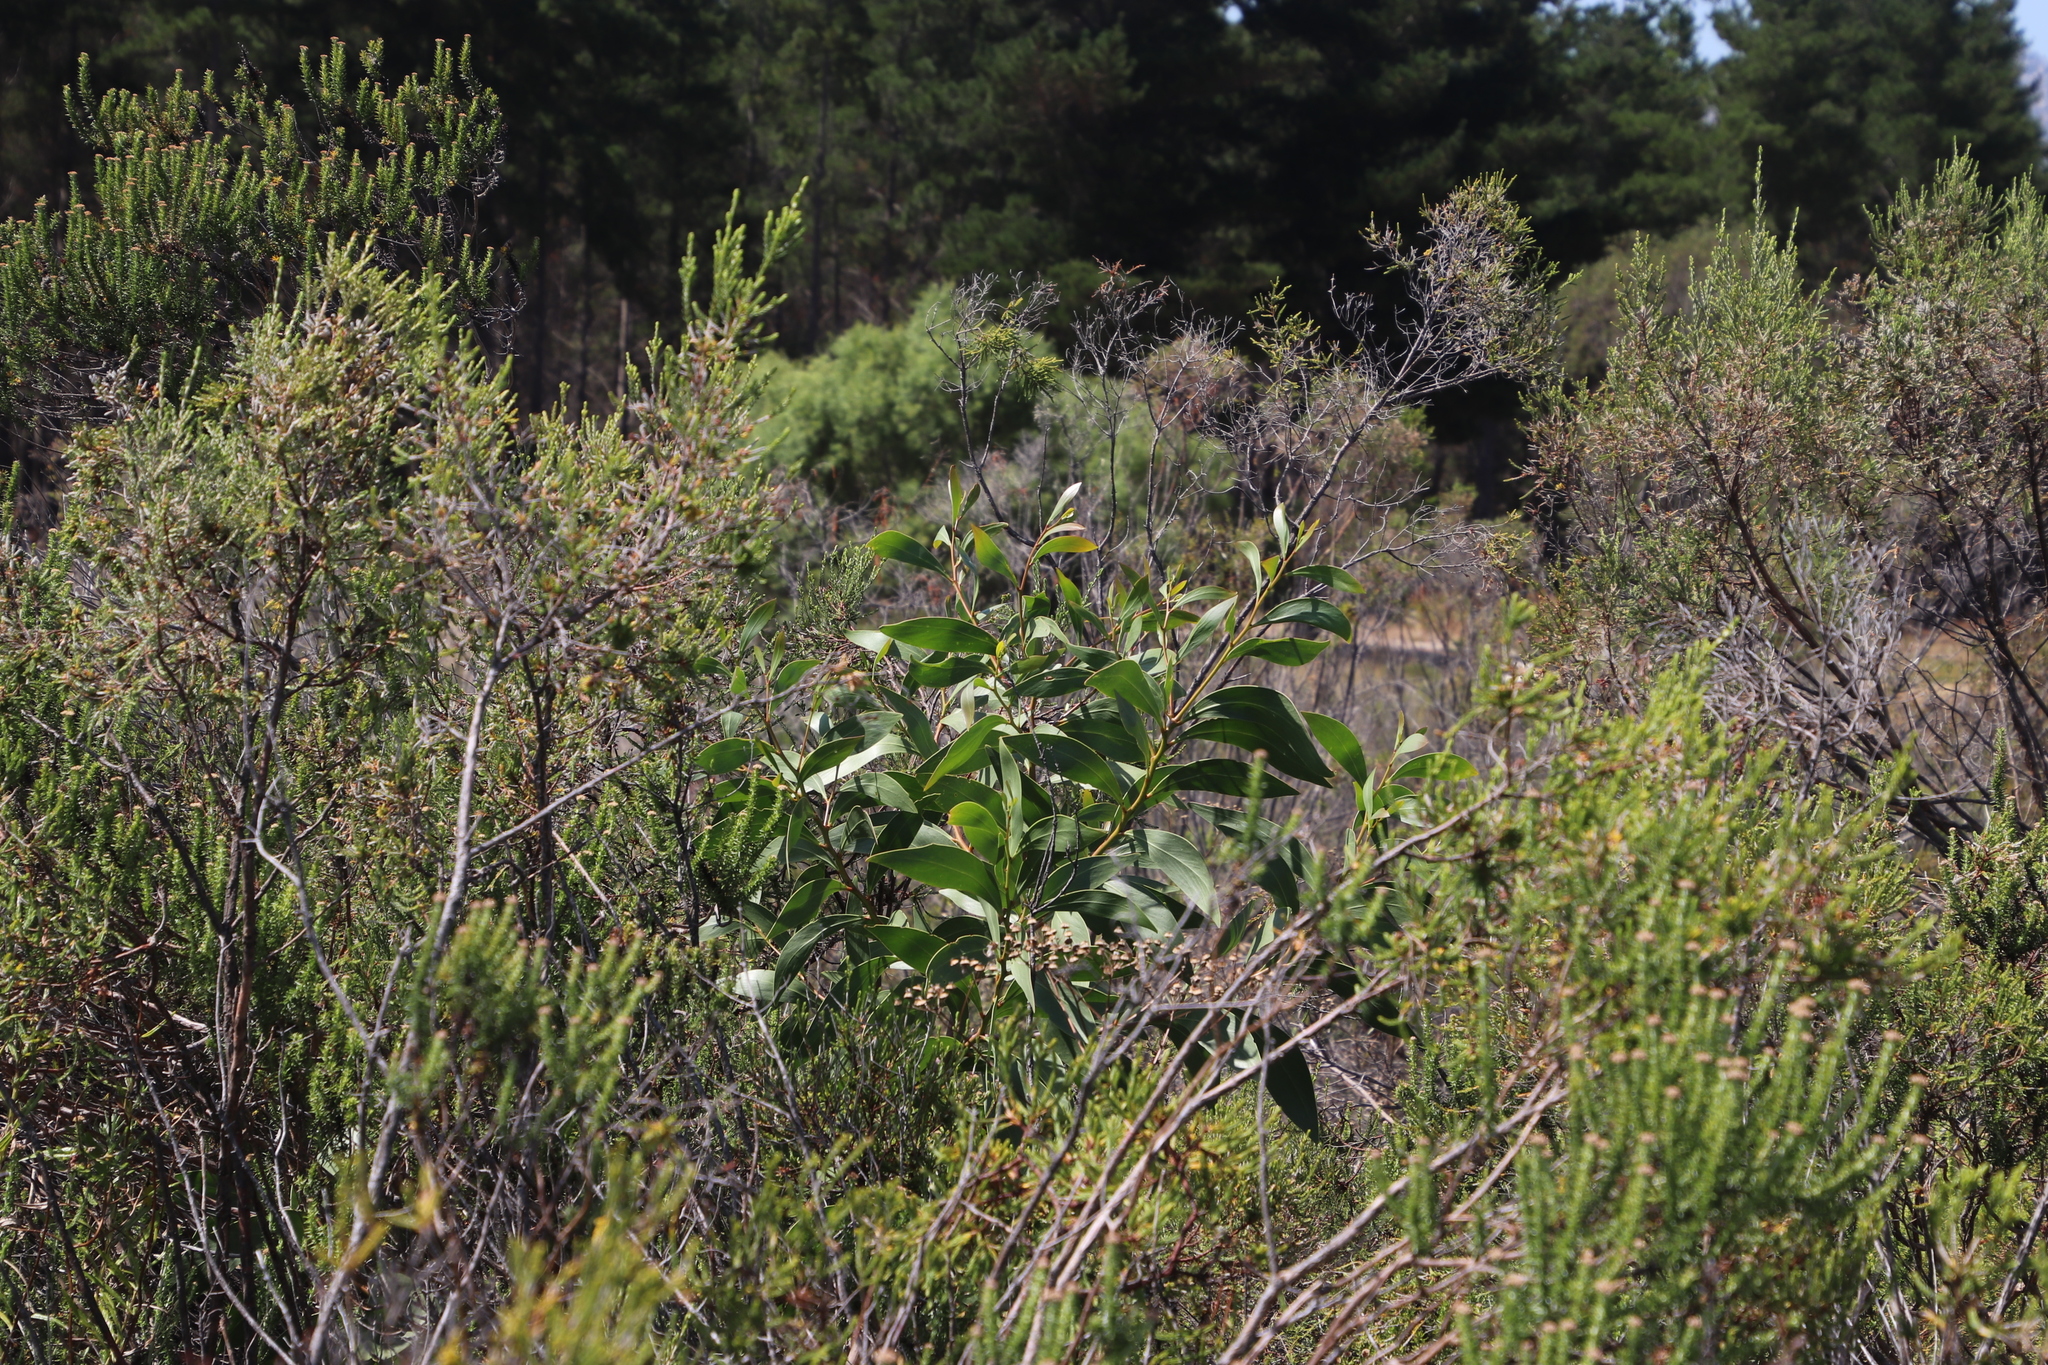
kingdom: Plantae
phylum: Tracheophyta
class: Magnoliopsida
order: Fabales
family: Fabaceae
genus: Acacia
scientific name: Acacia pycnantha
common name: Golden wattle
